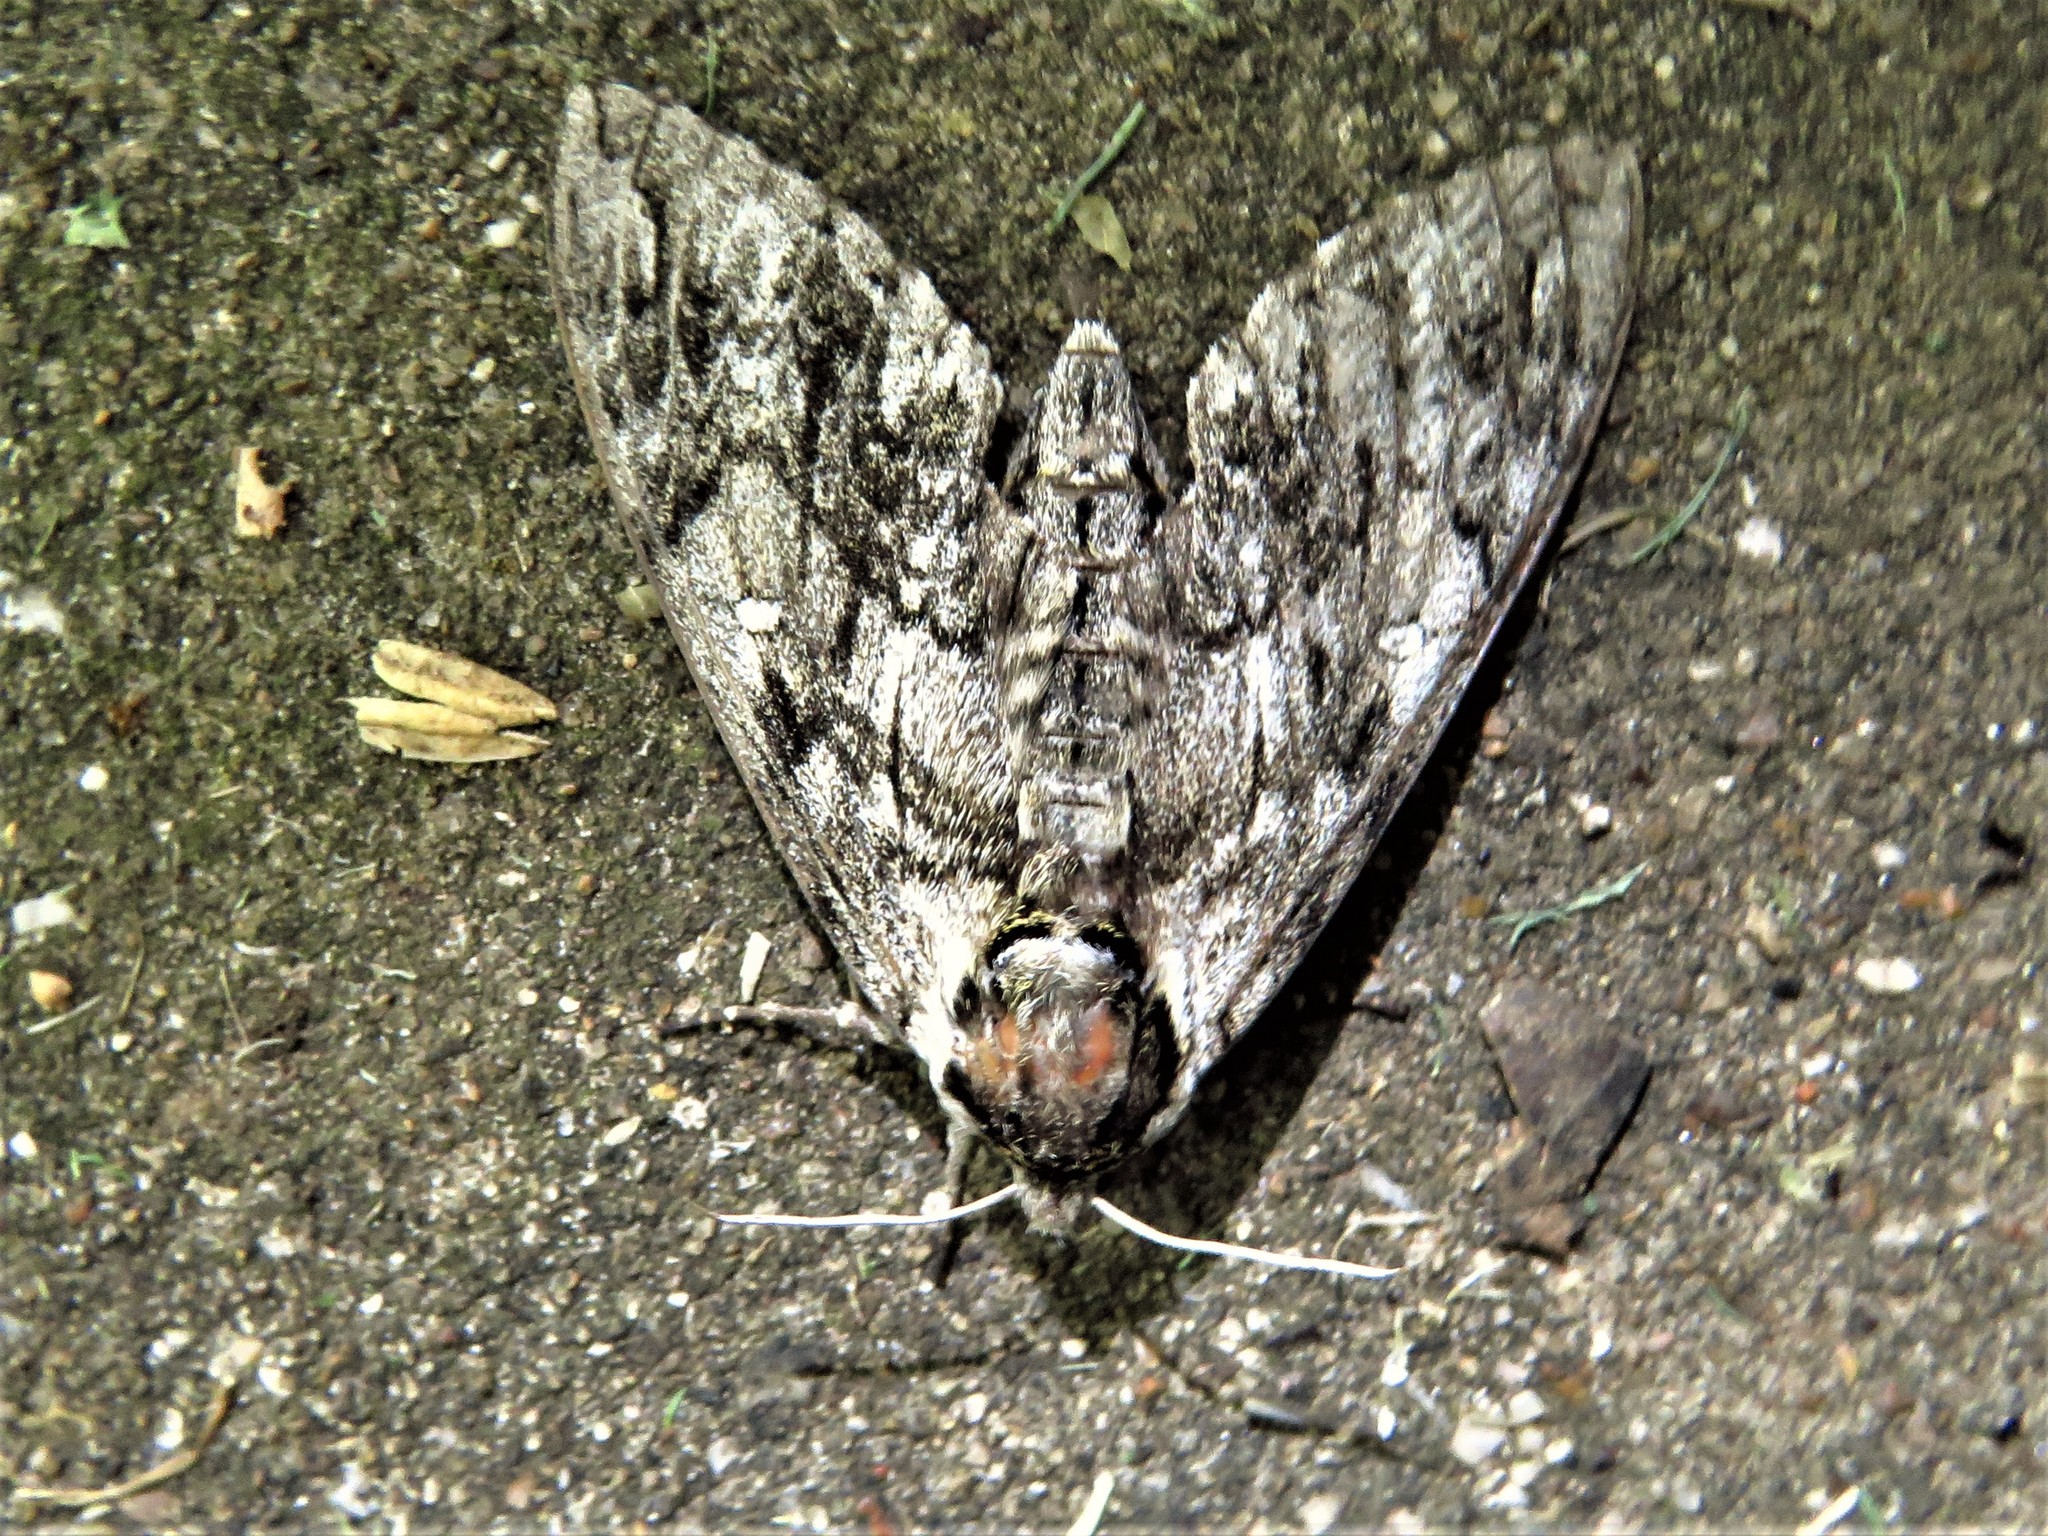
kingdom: Animalia
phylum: Arthropoda
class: Insecta
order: Lepidoptera
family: Sphingidae
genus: Ceratomia
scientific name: Ceratomia undulosa
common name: Waved sphinx
